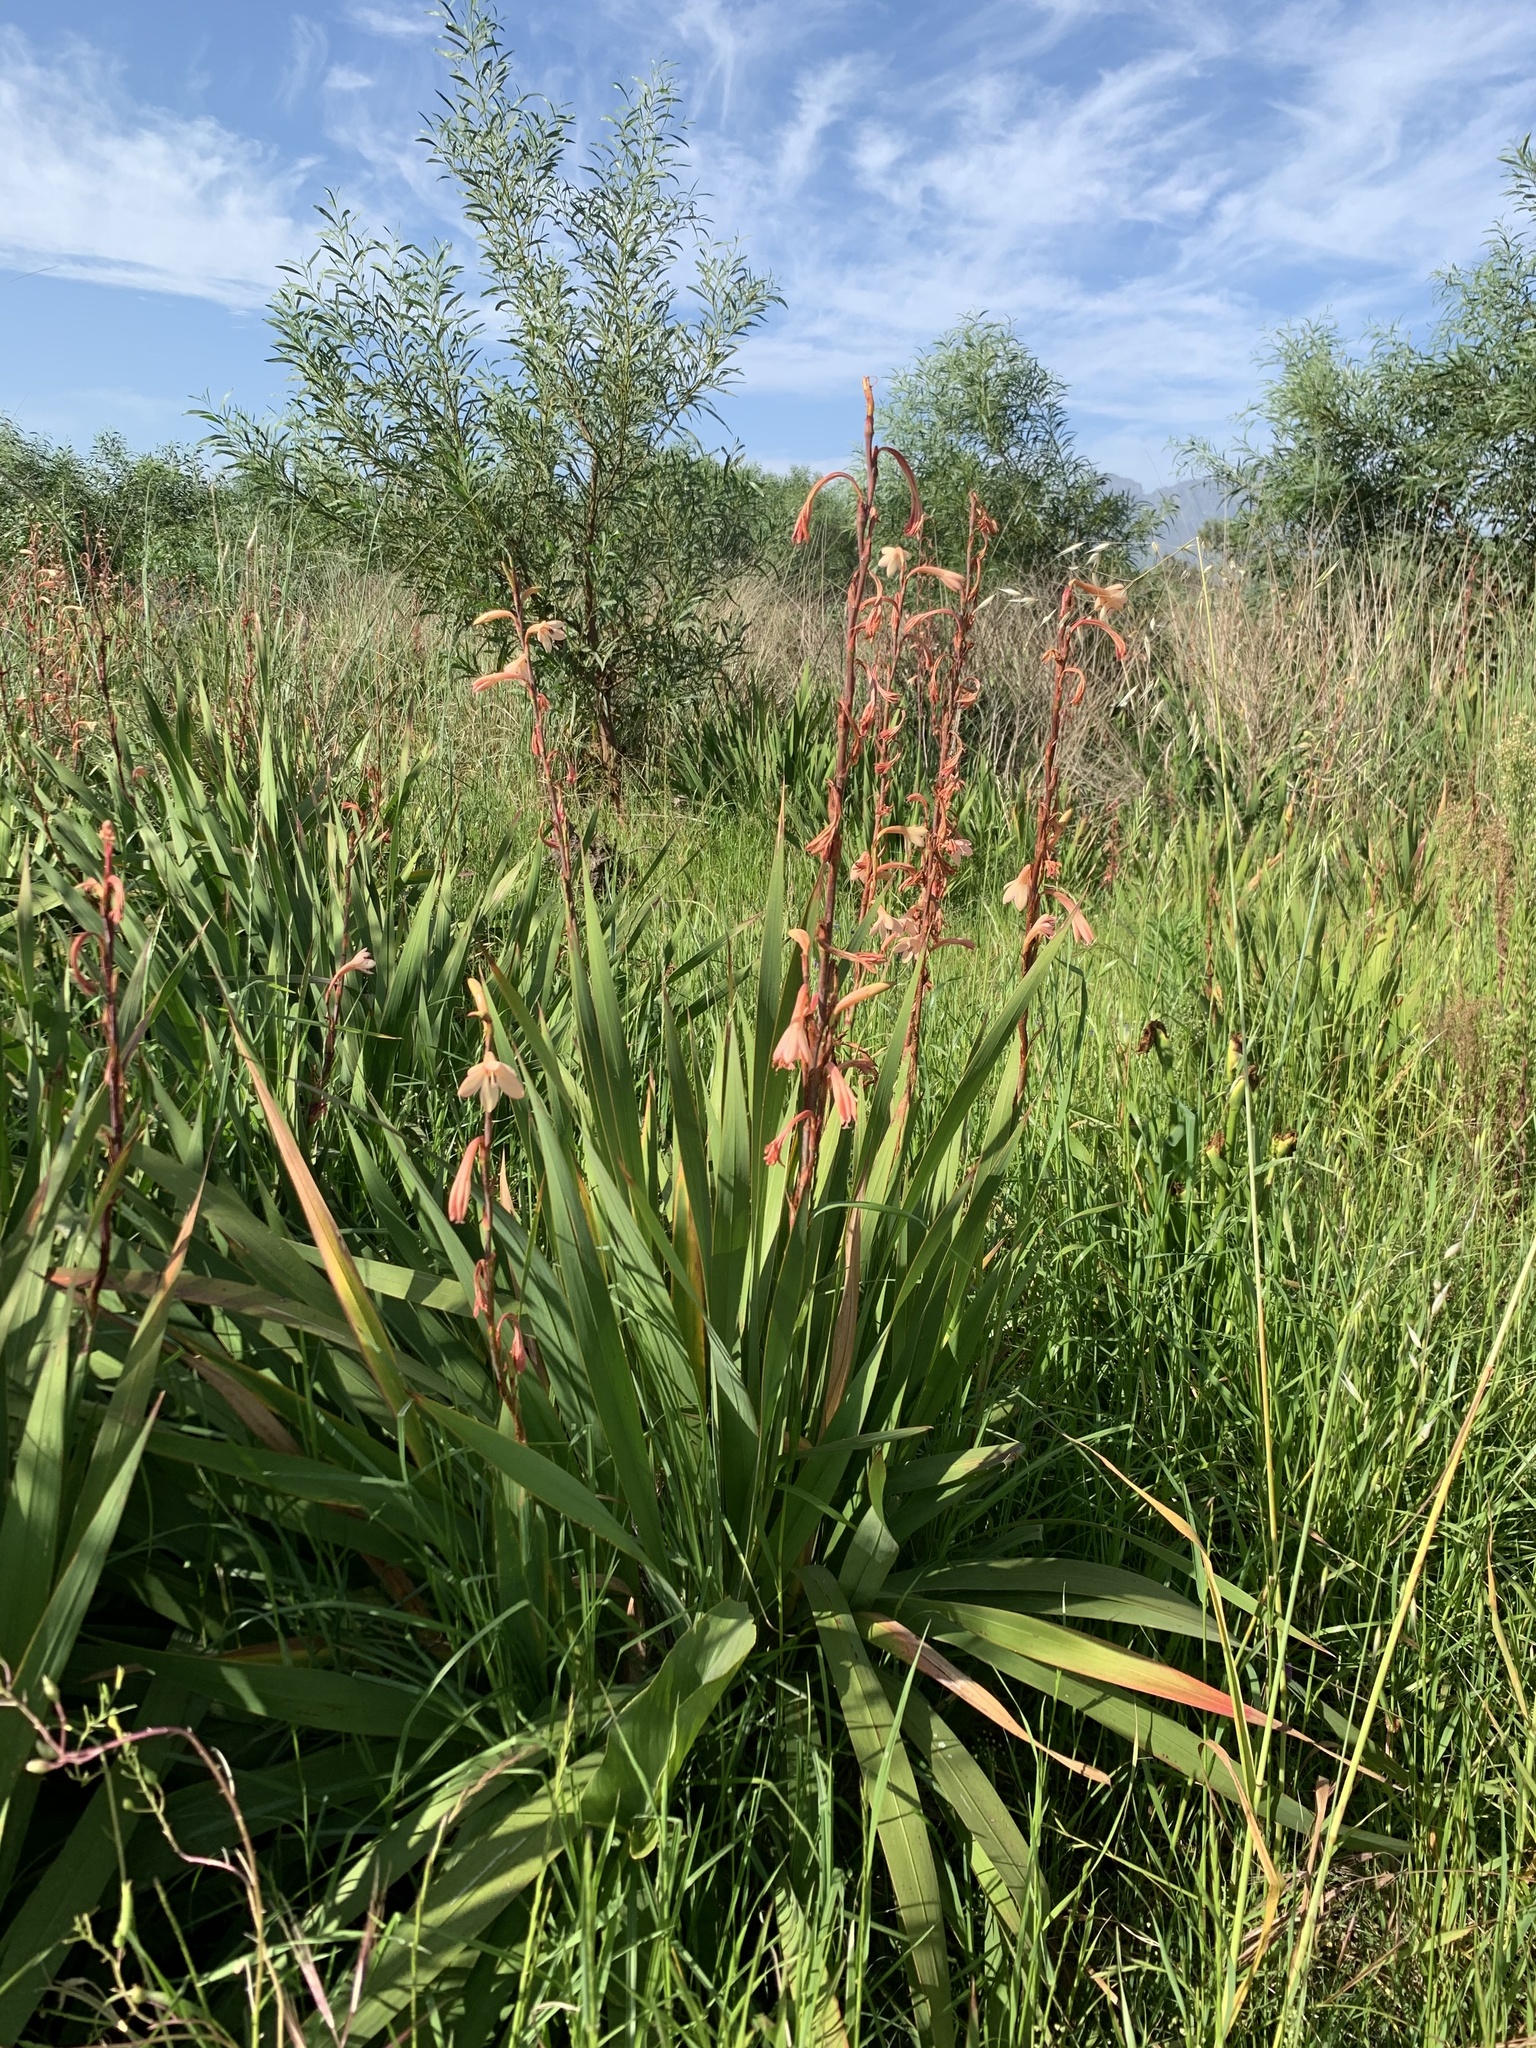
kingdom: Plantae
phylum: Tracheophyta
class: Liliopsida
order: Asparagales
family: Iridaceae
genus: Watsonia
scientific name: Watsonia meriana
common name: Bulbil bugle-lily
